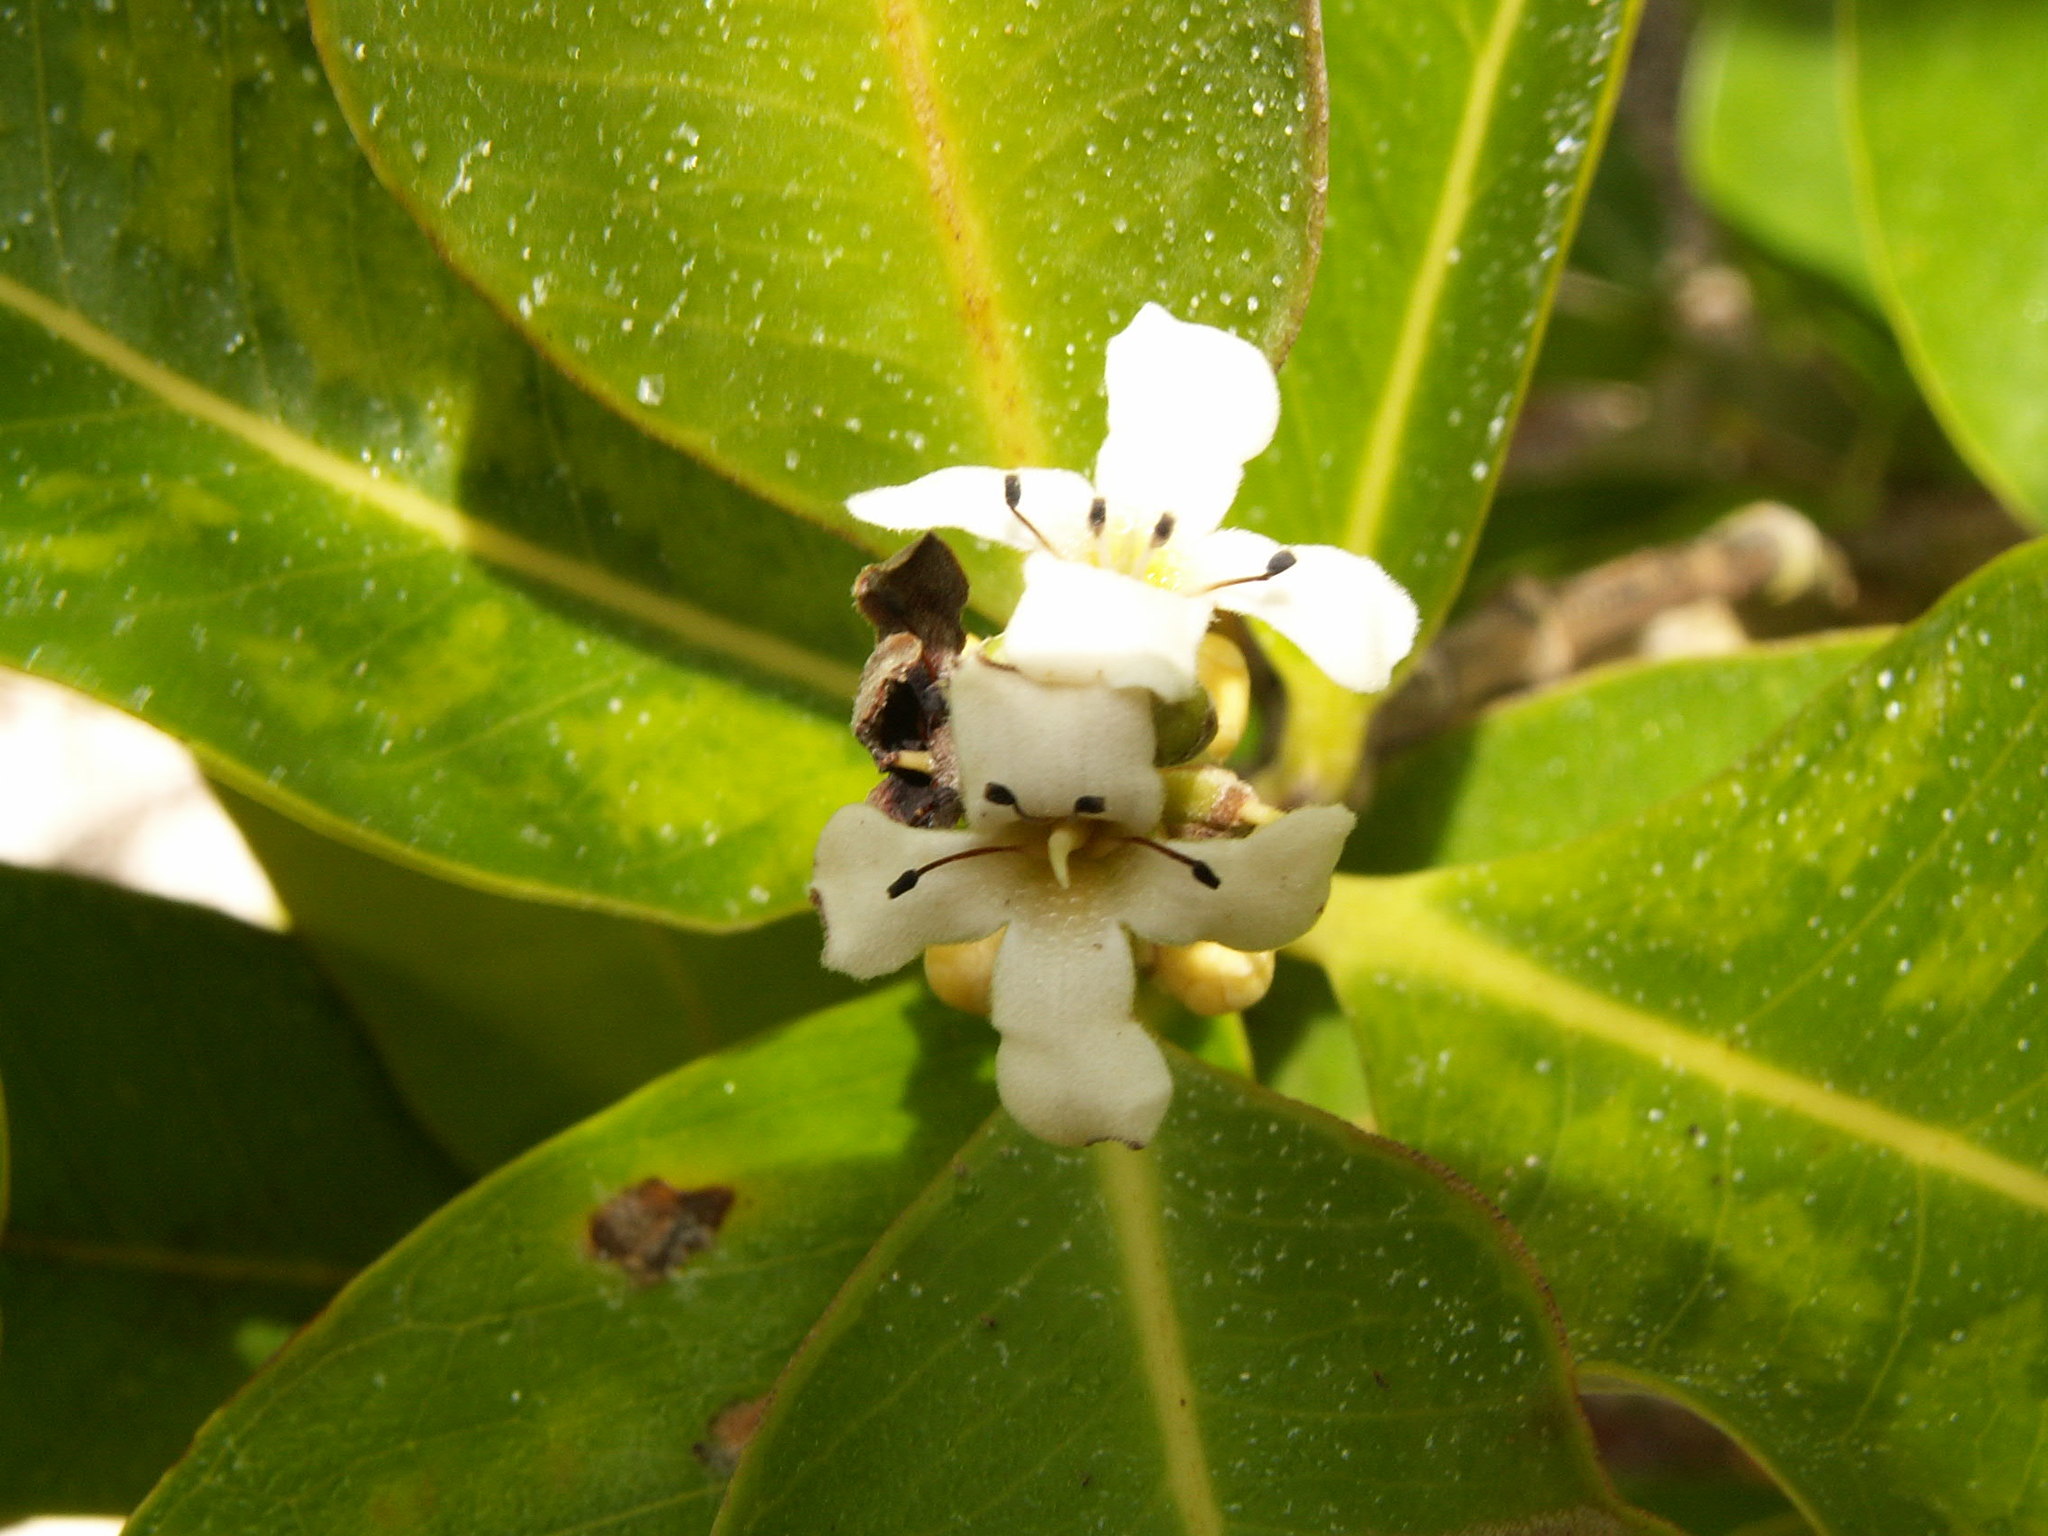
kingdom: Plantae
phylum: Tracheophyta
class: Magnoliopsida
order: Lamiales
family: Acanthaceae
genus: Avicennia
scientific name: Avicennia germinans
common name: Black mangrove
